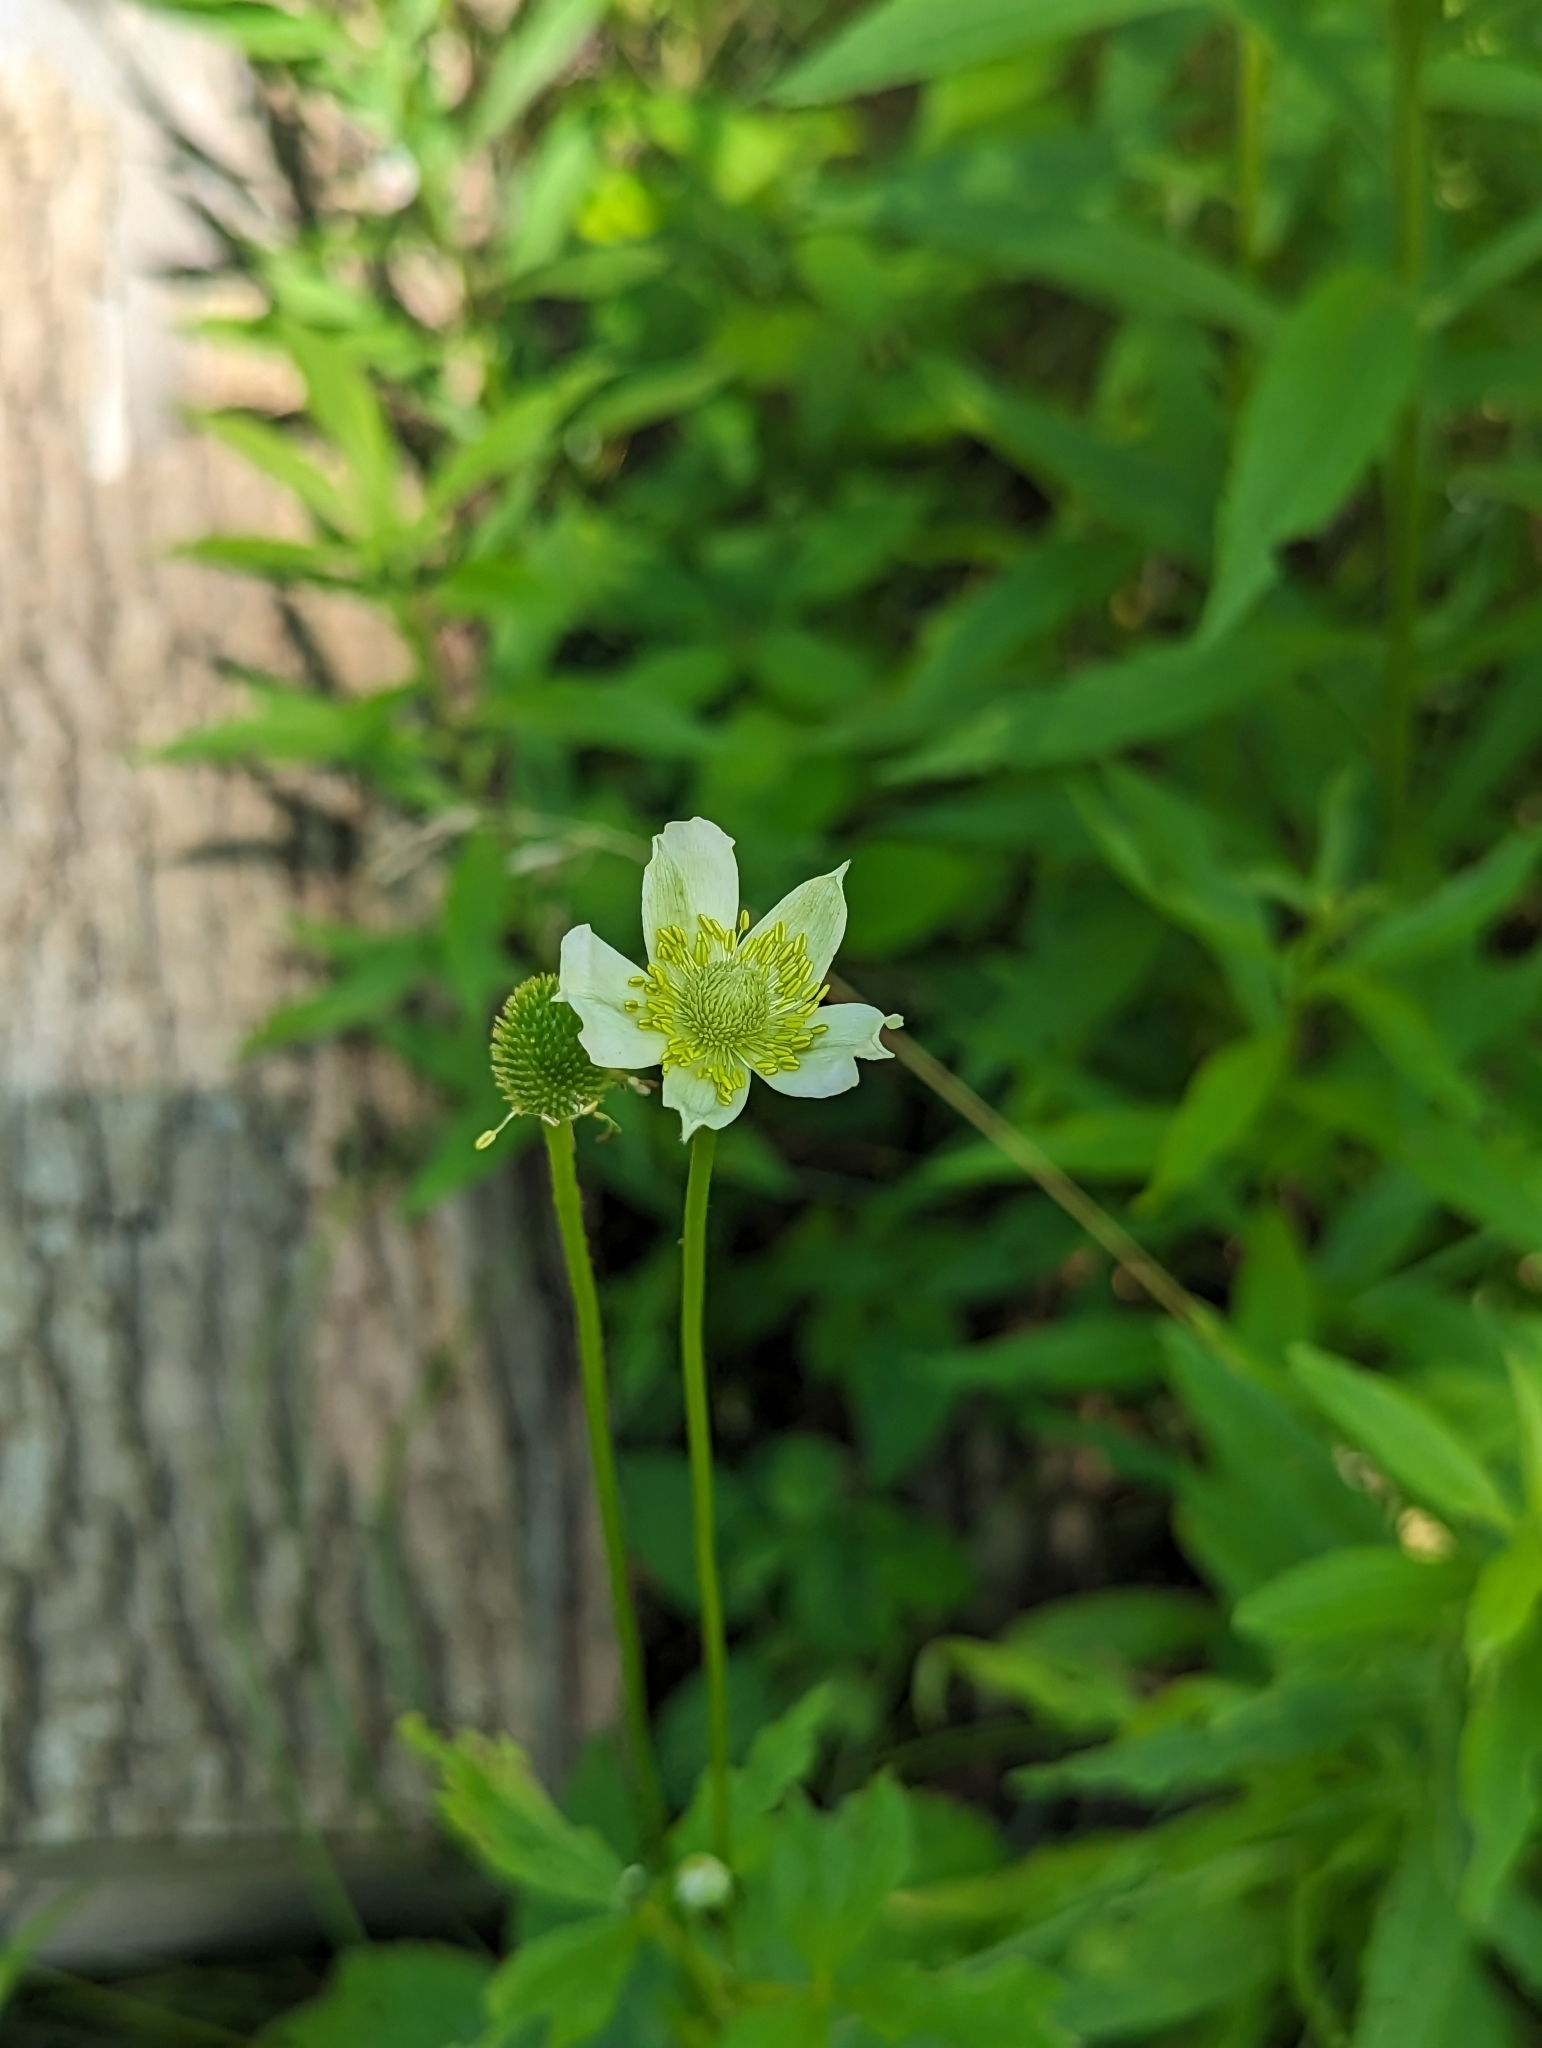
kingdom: Plantae
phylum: Tracheophyta
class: Magnoliopsida
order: Ranunculales
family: Ranunculaceae
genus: Anemone
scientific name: Anemone virginiana
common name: Tall anemone
